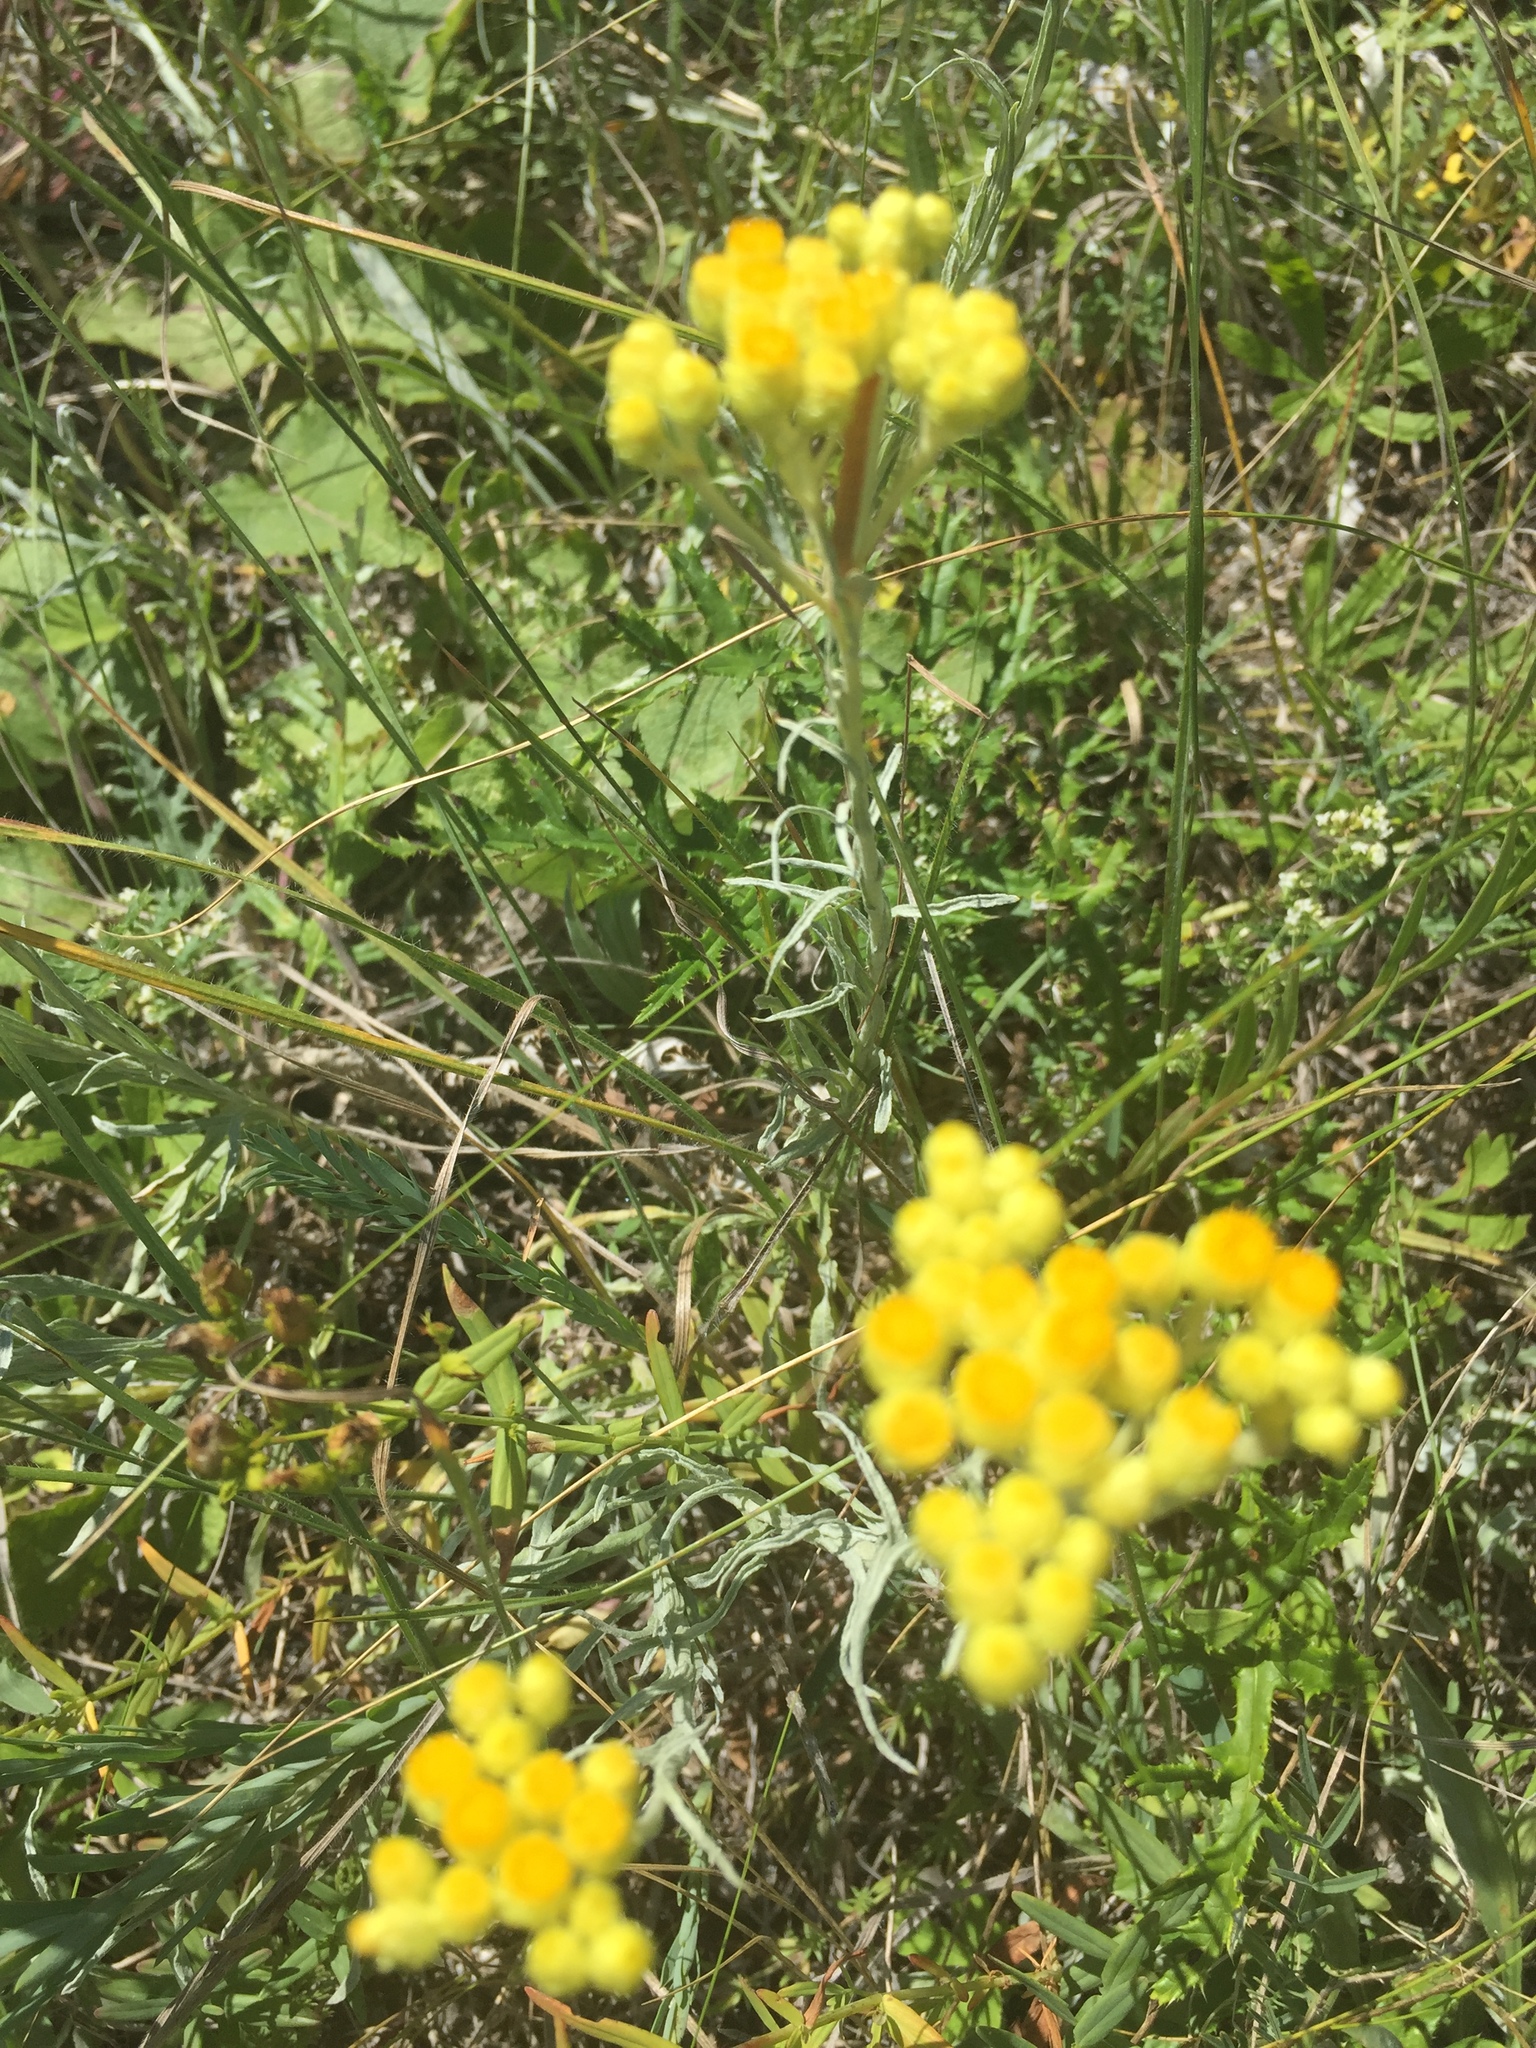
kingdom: Plantae
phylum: Tracheophyta
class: Magnoliopsida
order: Asterales
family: Asteraceae
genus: Helichrysum
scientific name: Helichrysum arenarium
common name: Strawflower
